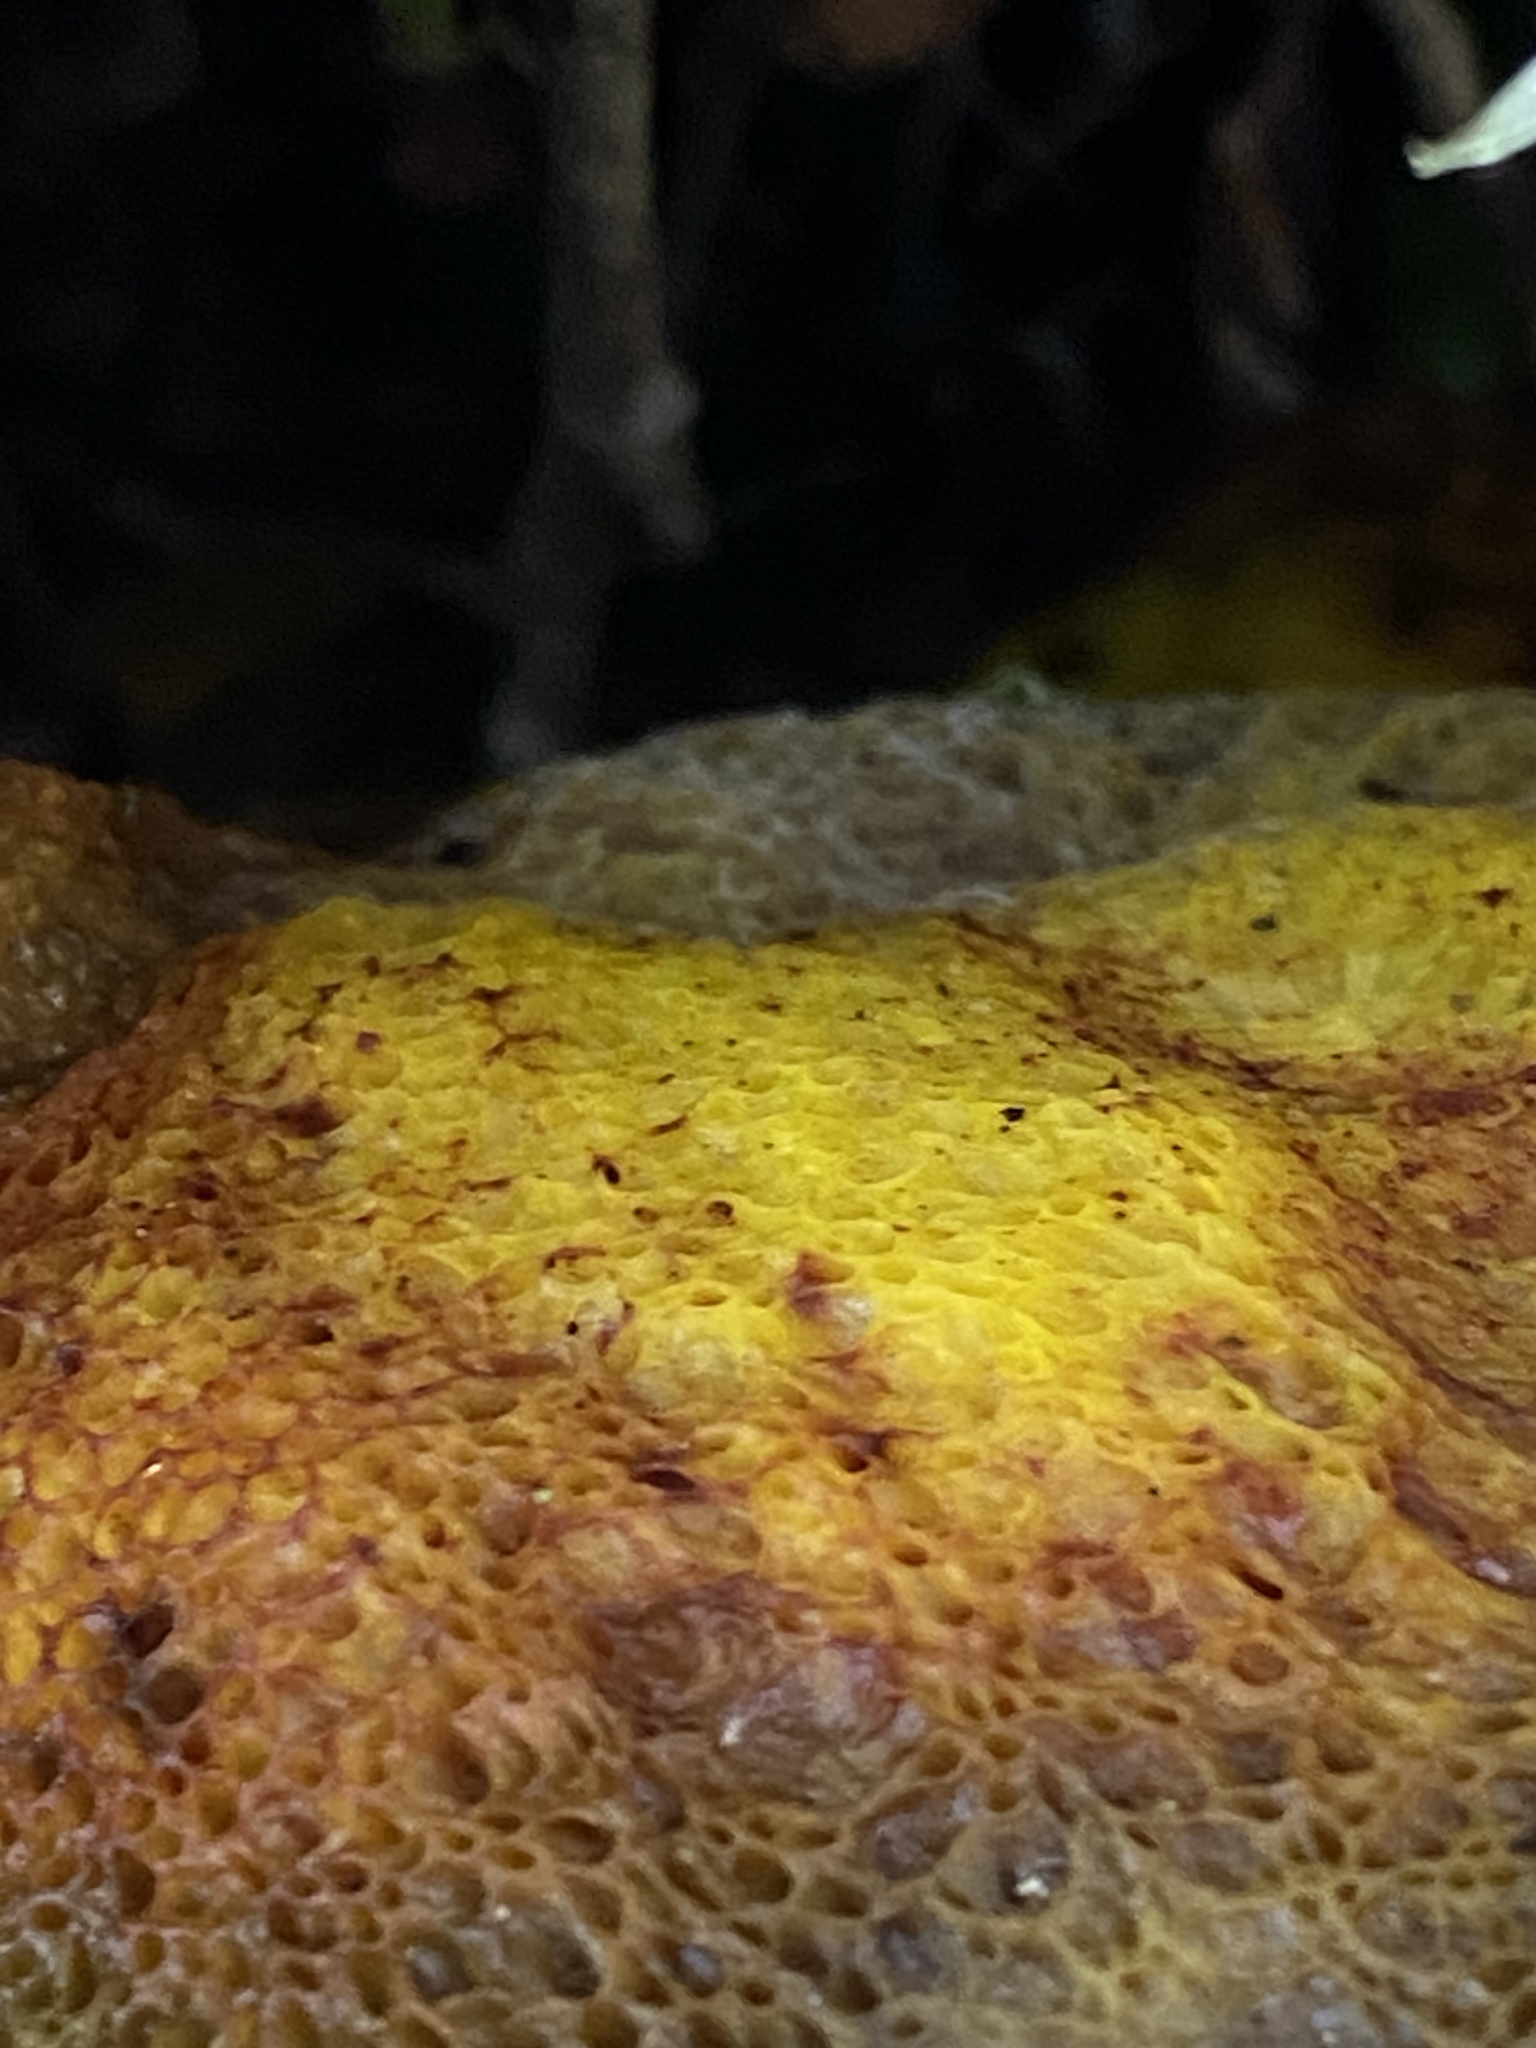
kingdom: Fungi
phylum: Basidiomycota
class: Agaricomycetes
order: Boletales
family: Boletaceae
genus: Aureoboletus
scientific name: Aureoboletus flaviporus
